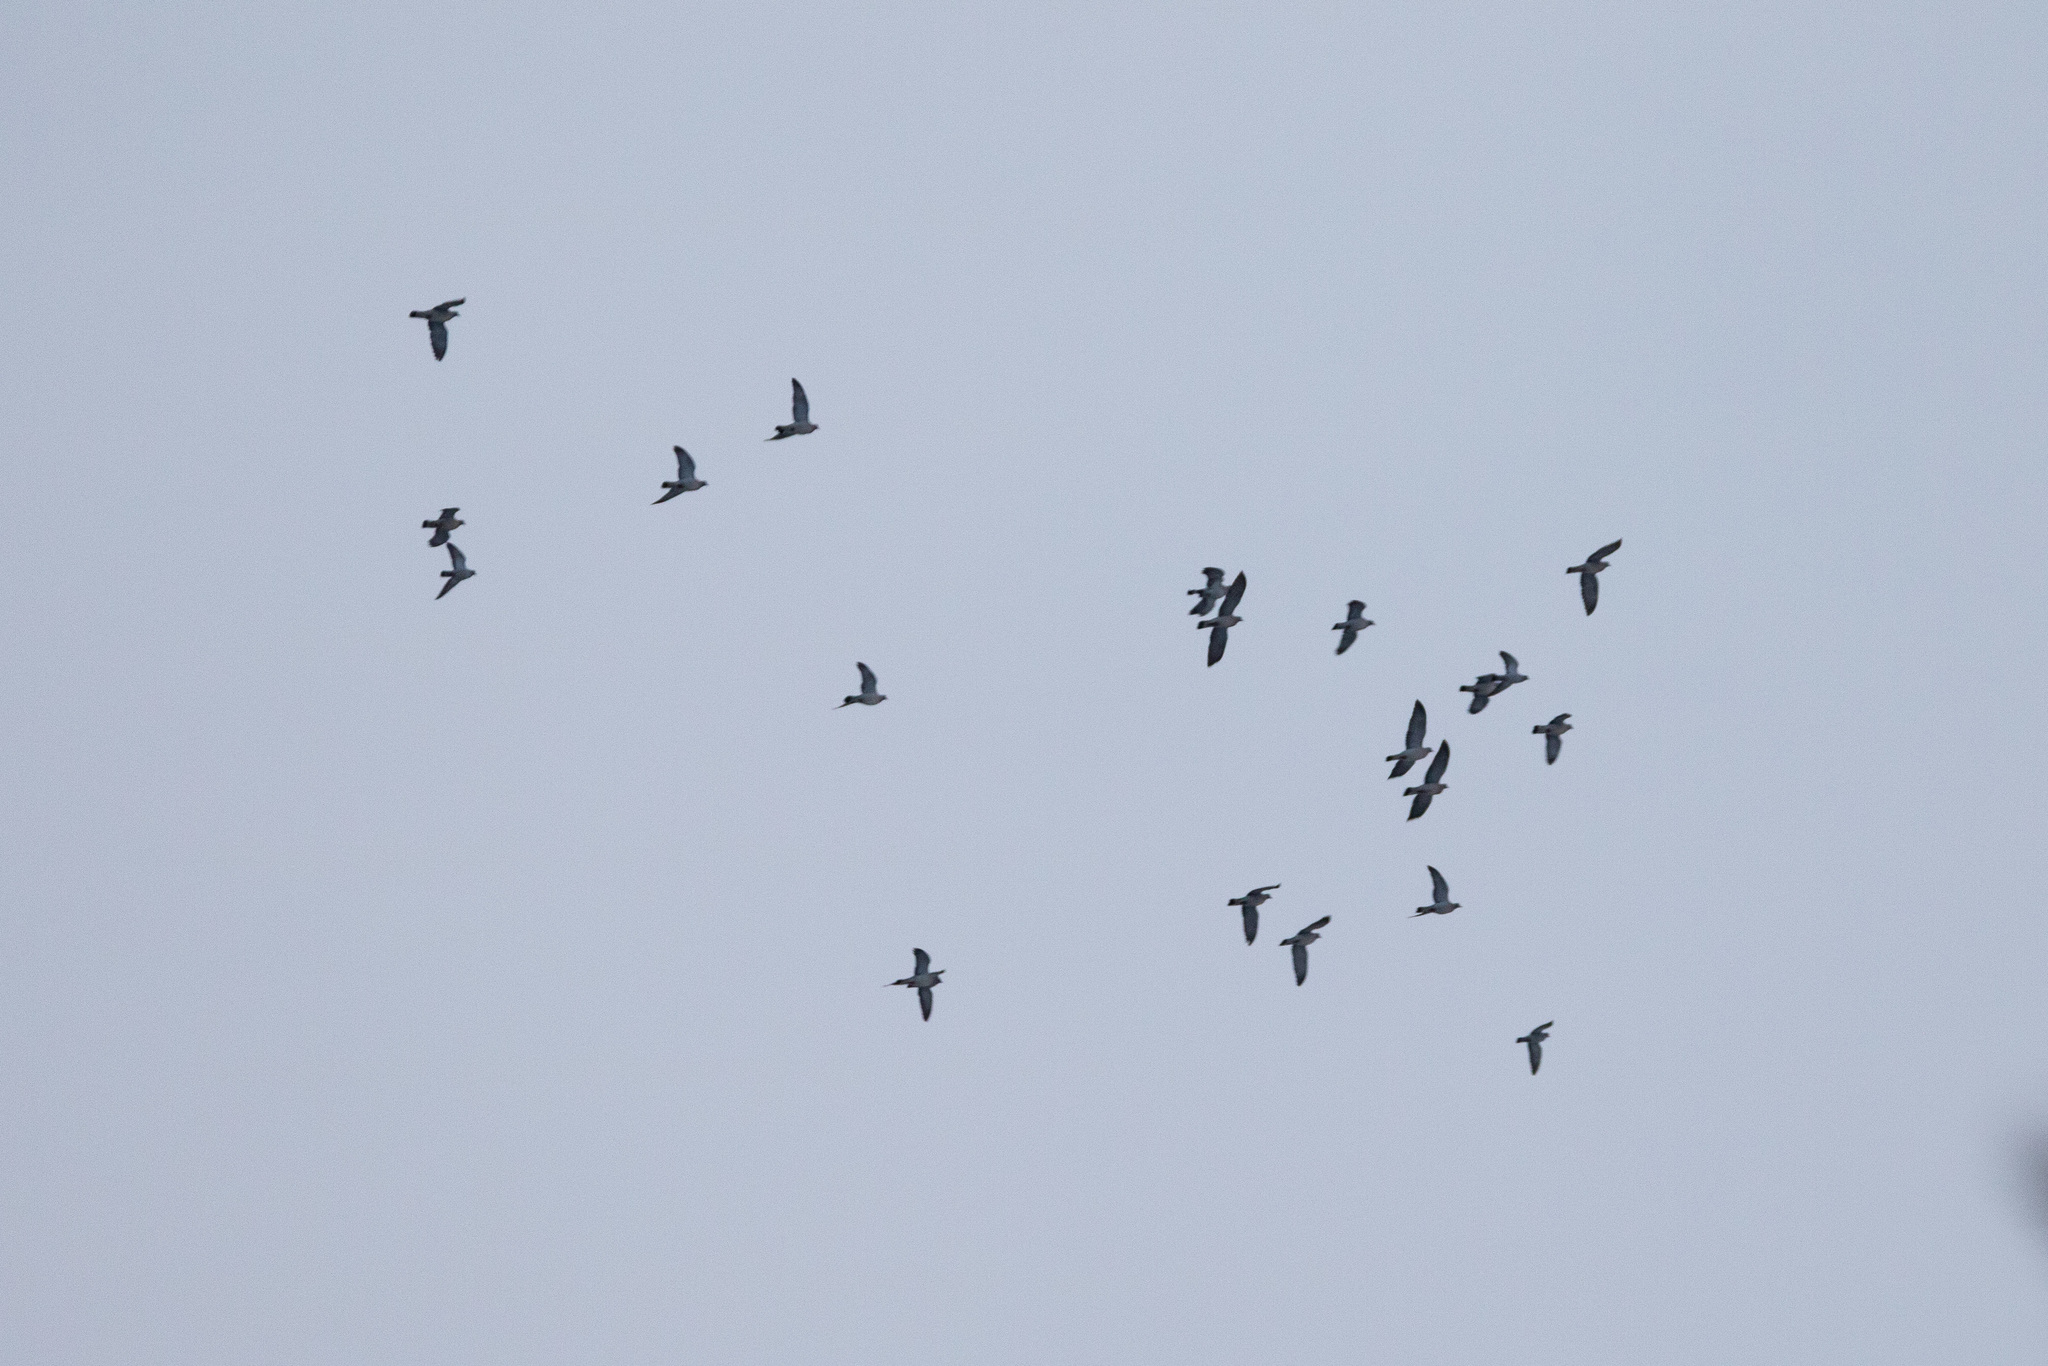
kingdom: Animalia
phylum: Chordata
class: Aves
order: Columbiformes
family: Columbidae
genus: Columba
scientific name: Columba oenas
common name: Stock dove
